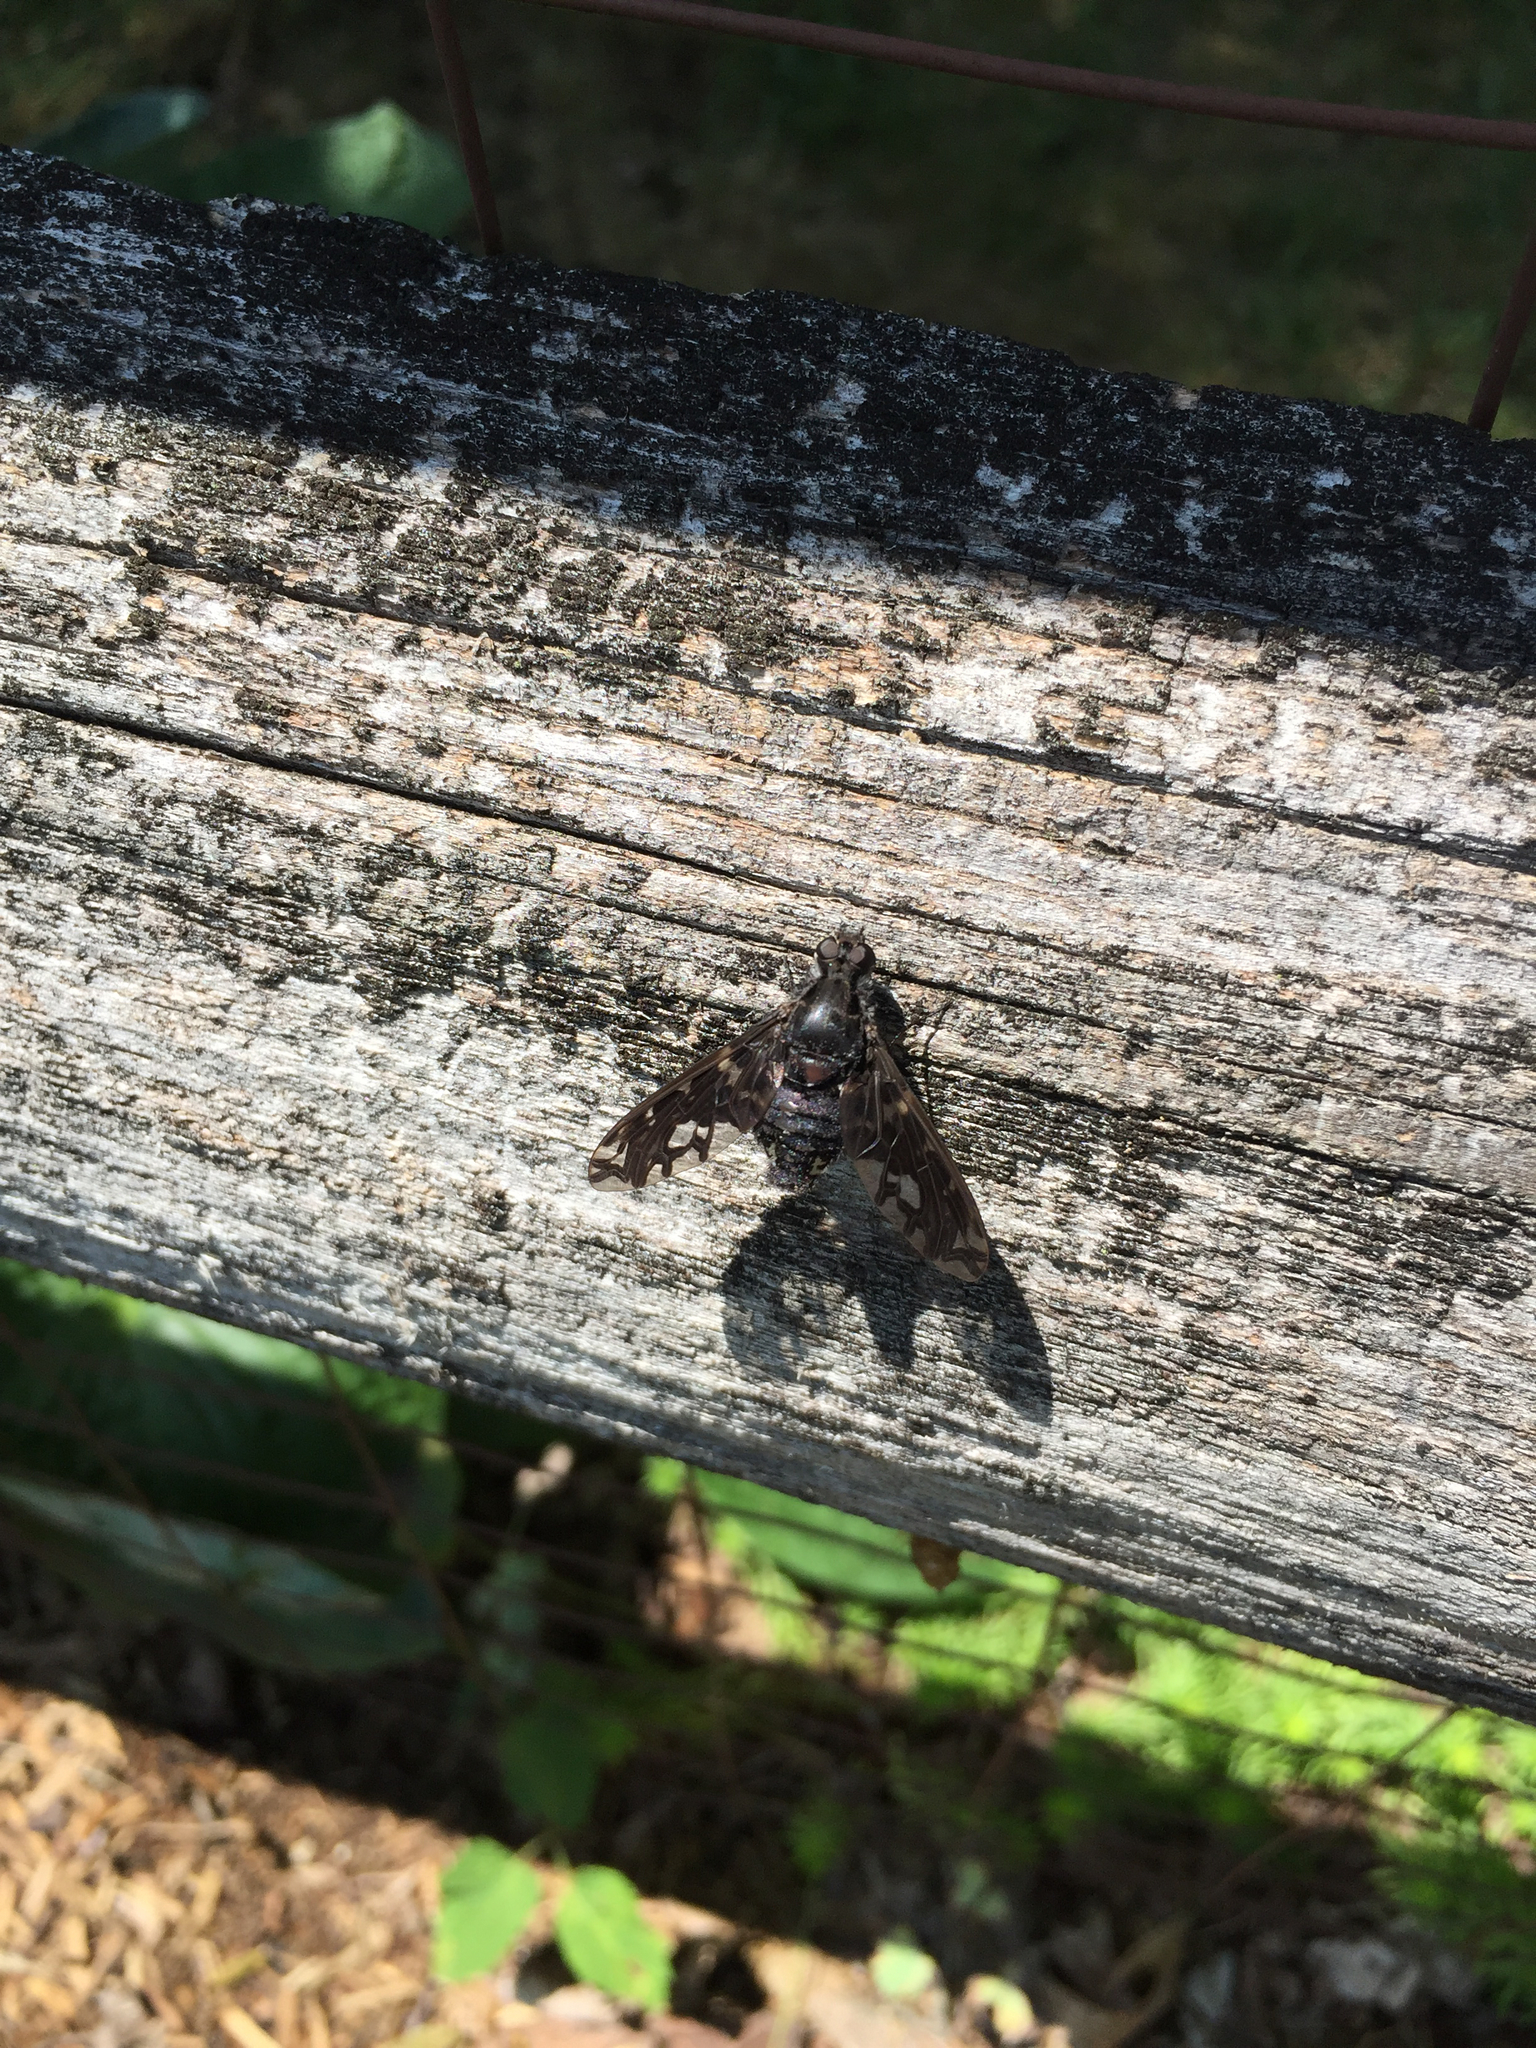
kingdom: Animalia
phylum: Arthropoda
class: Insecta
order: Diptera
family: Bombyliidae
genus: Xenox
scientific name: Xenox tigrinus
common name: Tiger bee fly
